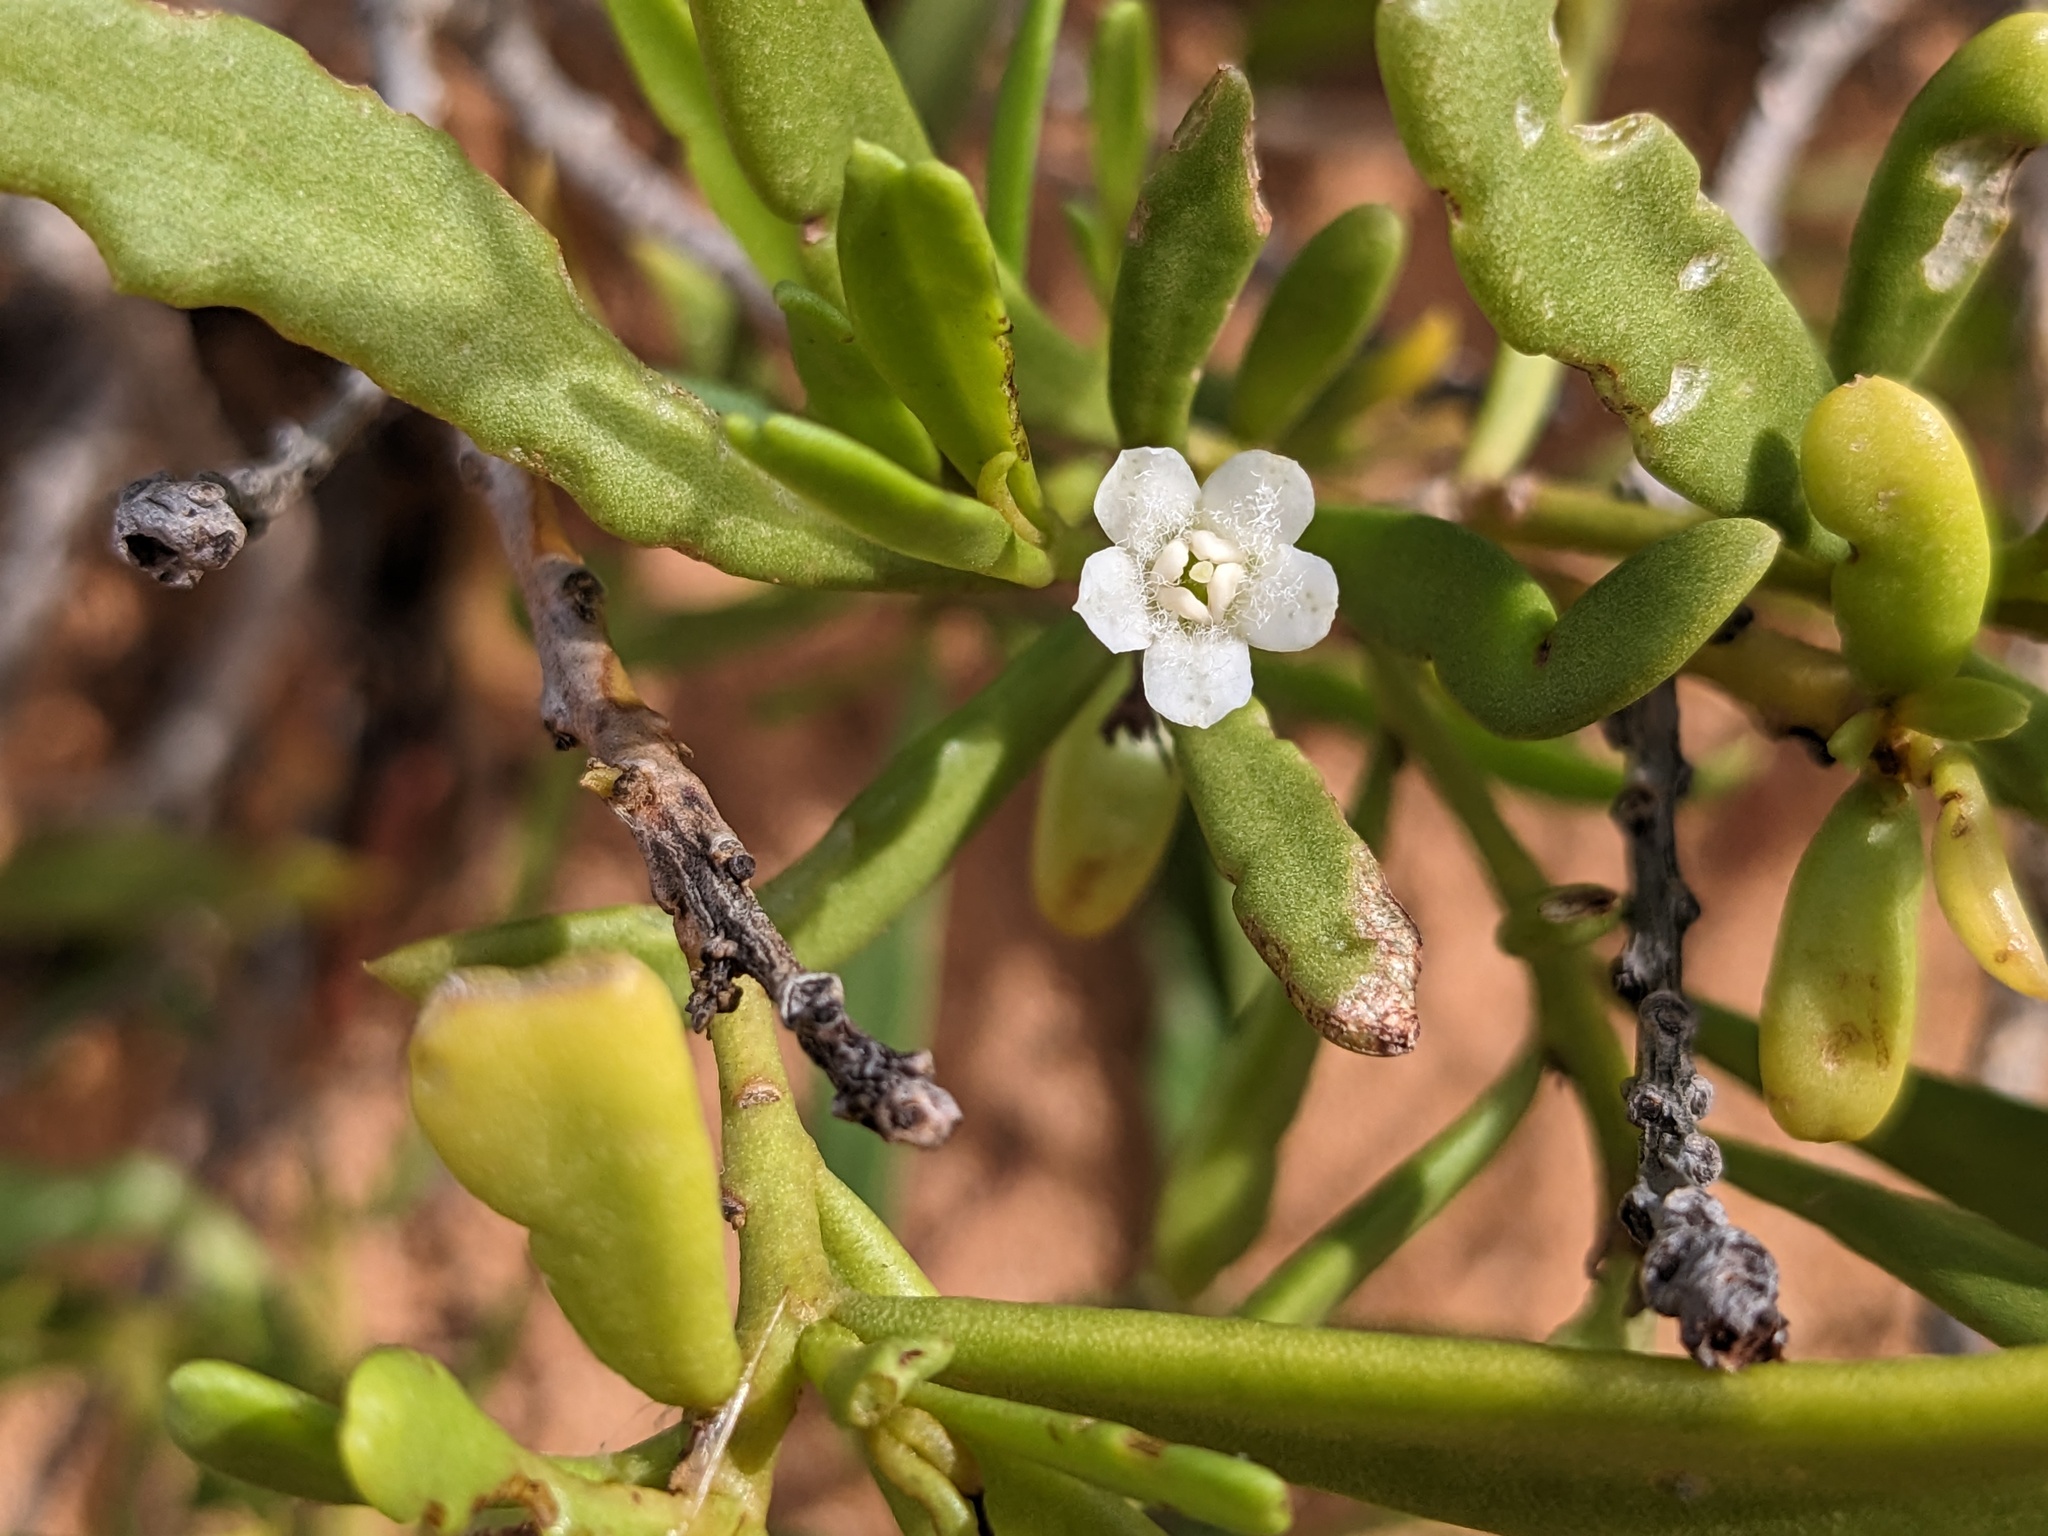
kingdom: Plantae
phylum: Tracheophyta
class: Magnoliopsida
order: Lamiales
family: Scrophulariaceae
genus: Myoporum
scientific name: Myoporum montanum
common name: Waterbush
